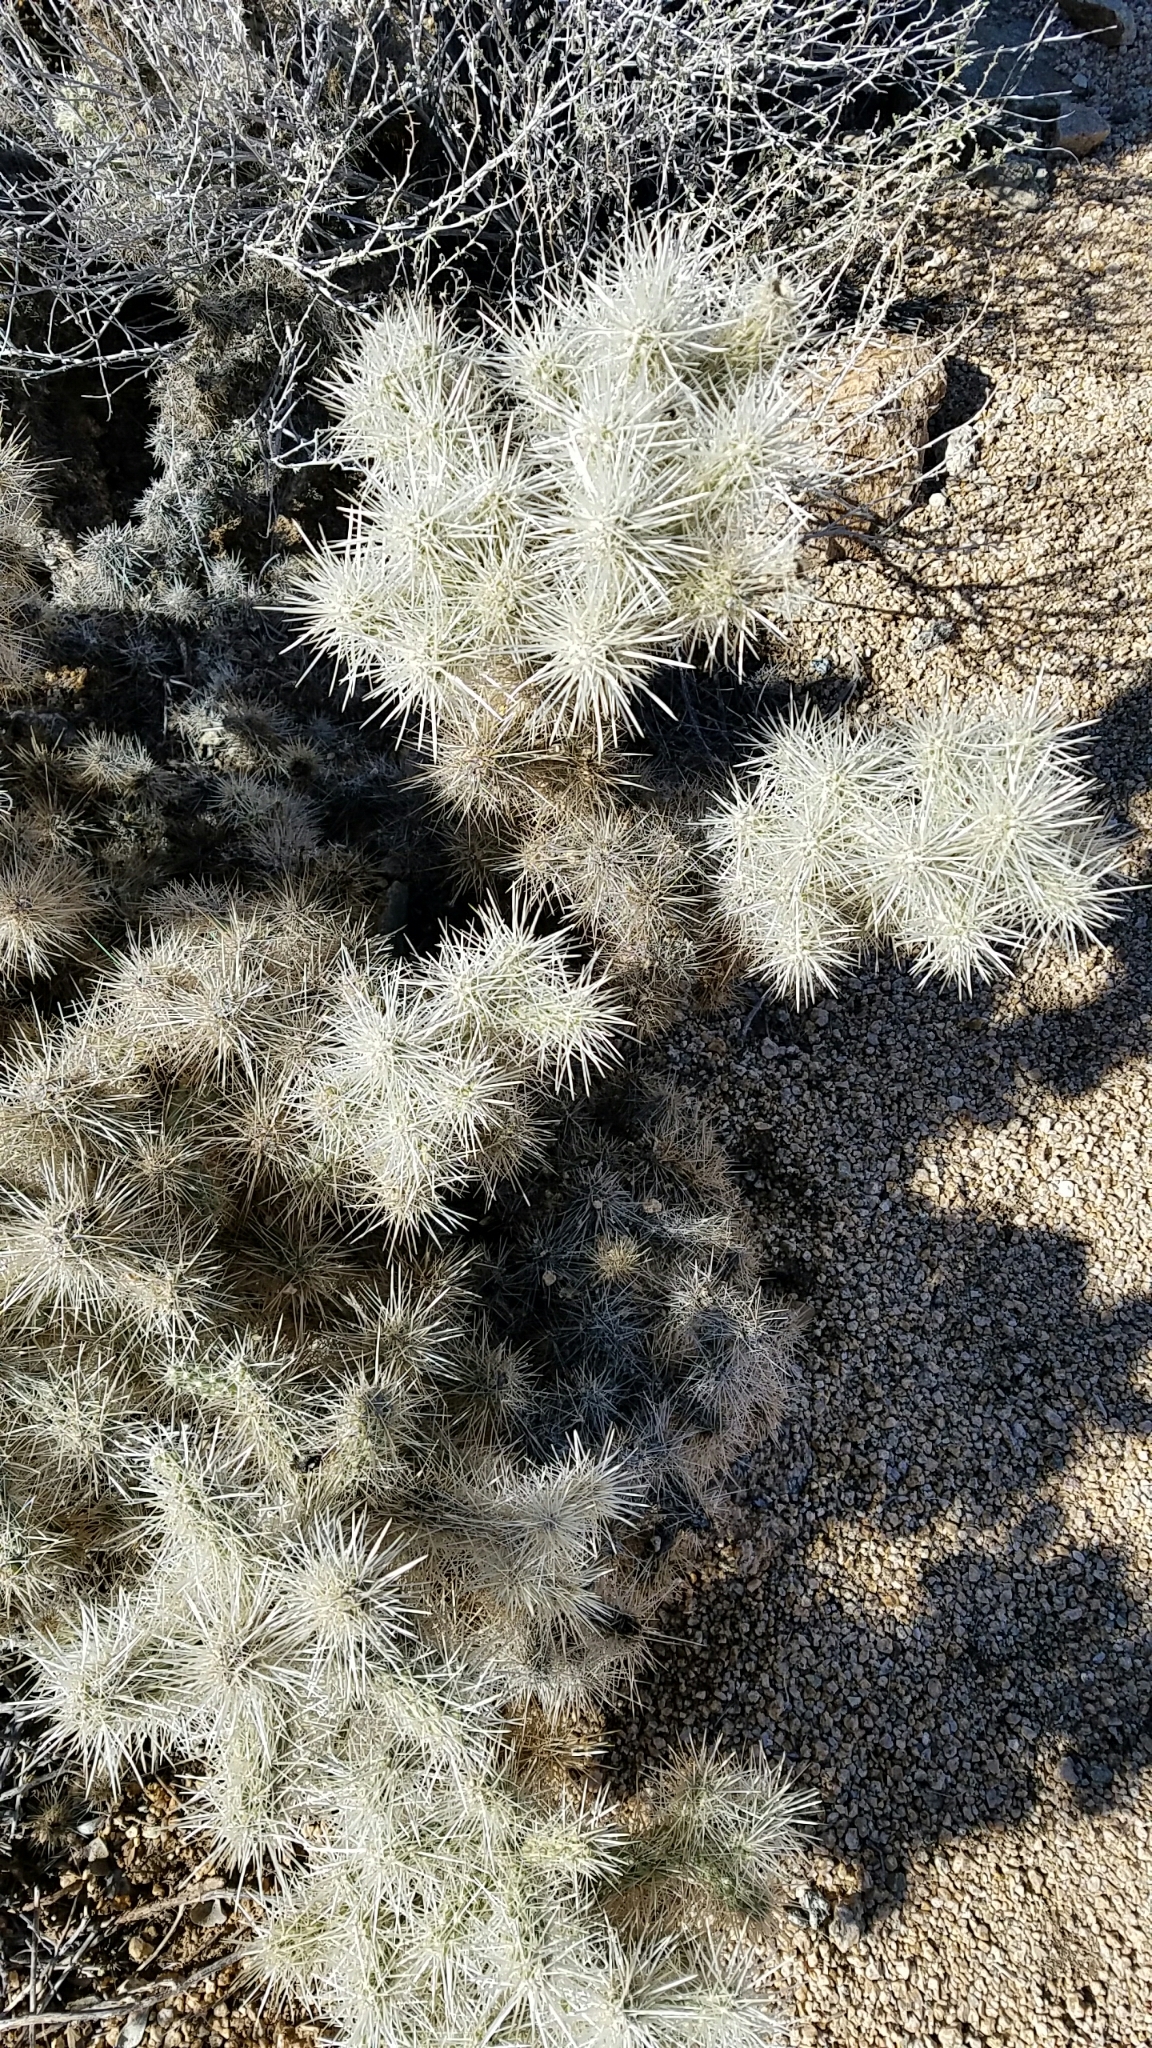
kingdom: Plantae
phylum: Tracheophyta
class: Magnoliopsida
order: Caryophyllales
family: Cactaceae
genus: Cylindropuntia
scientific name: Cylindropuntia echinocarpa
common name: Ground cholla
